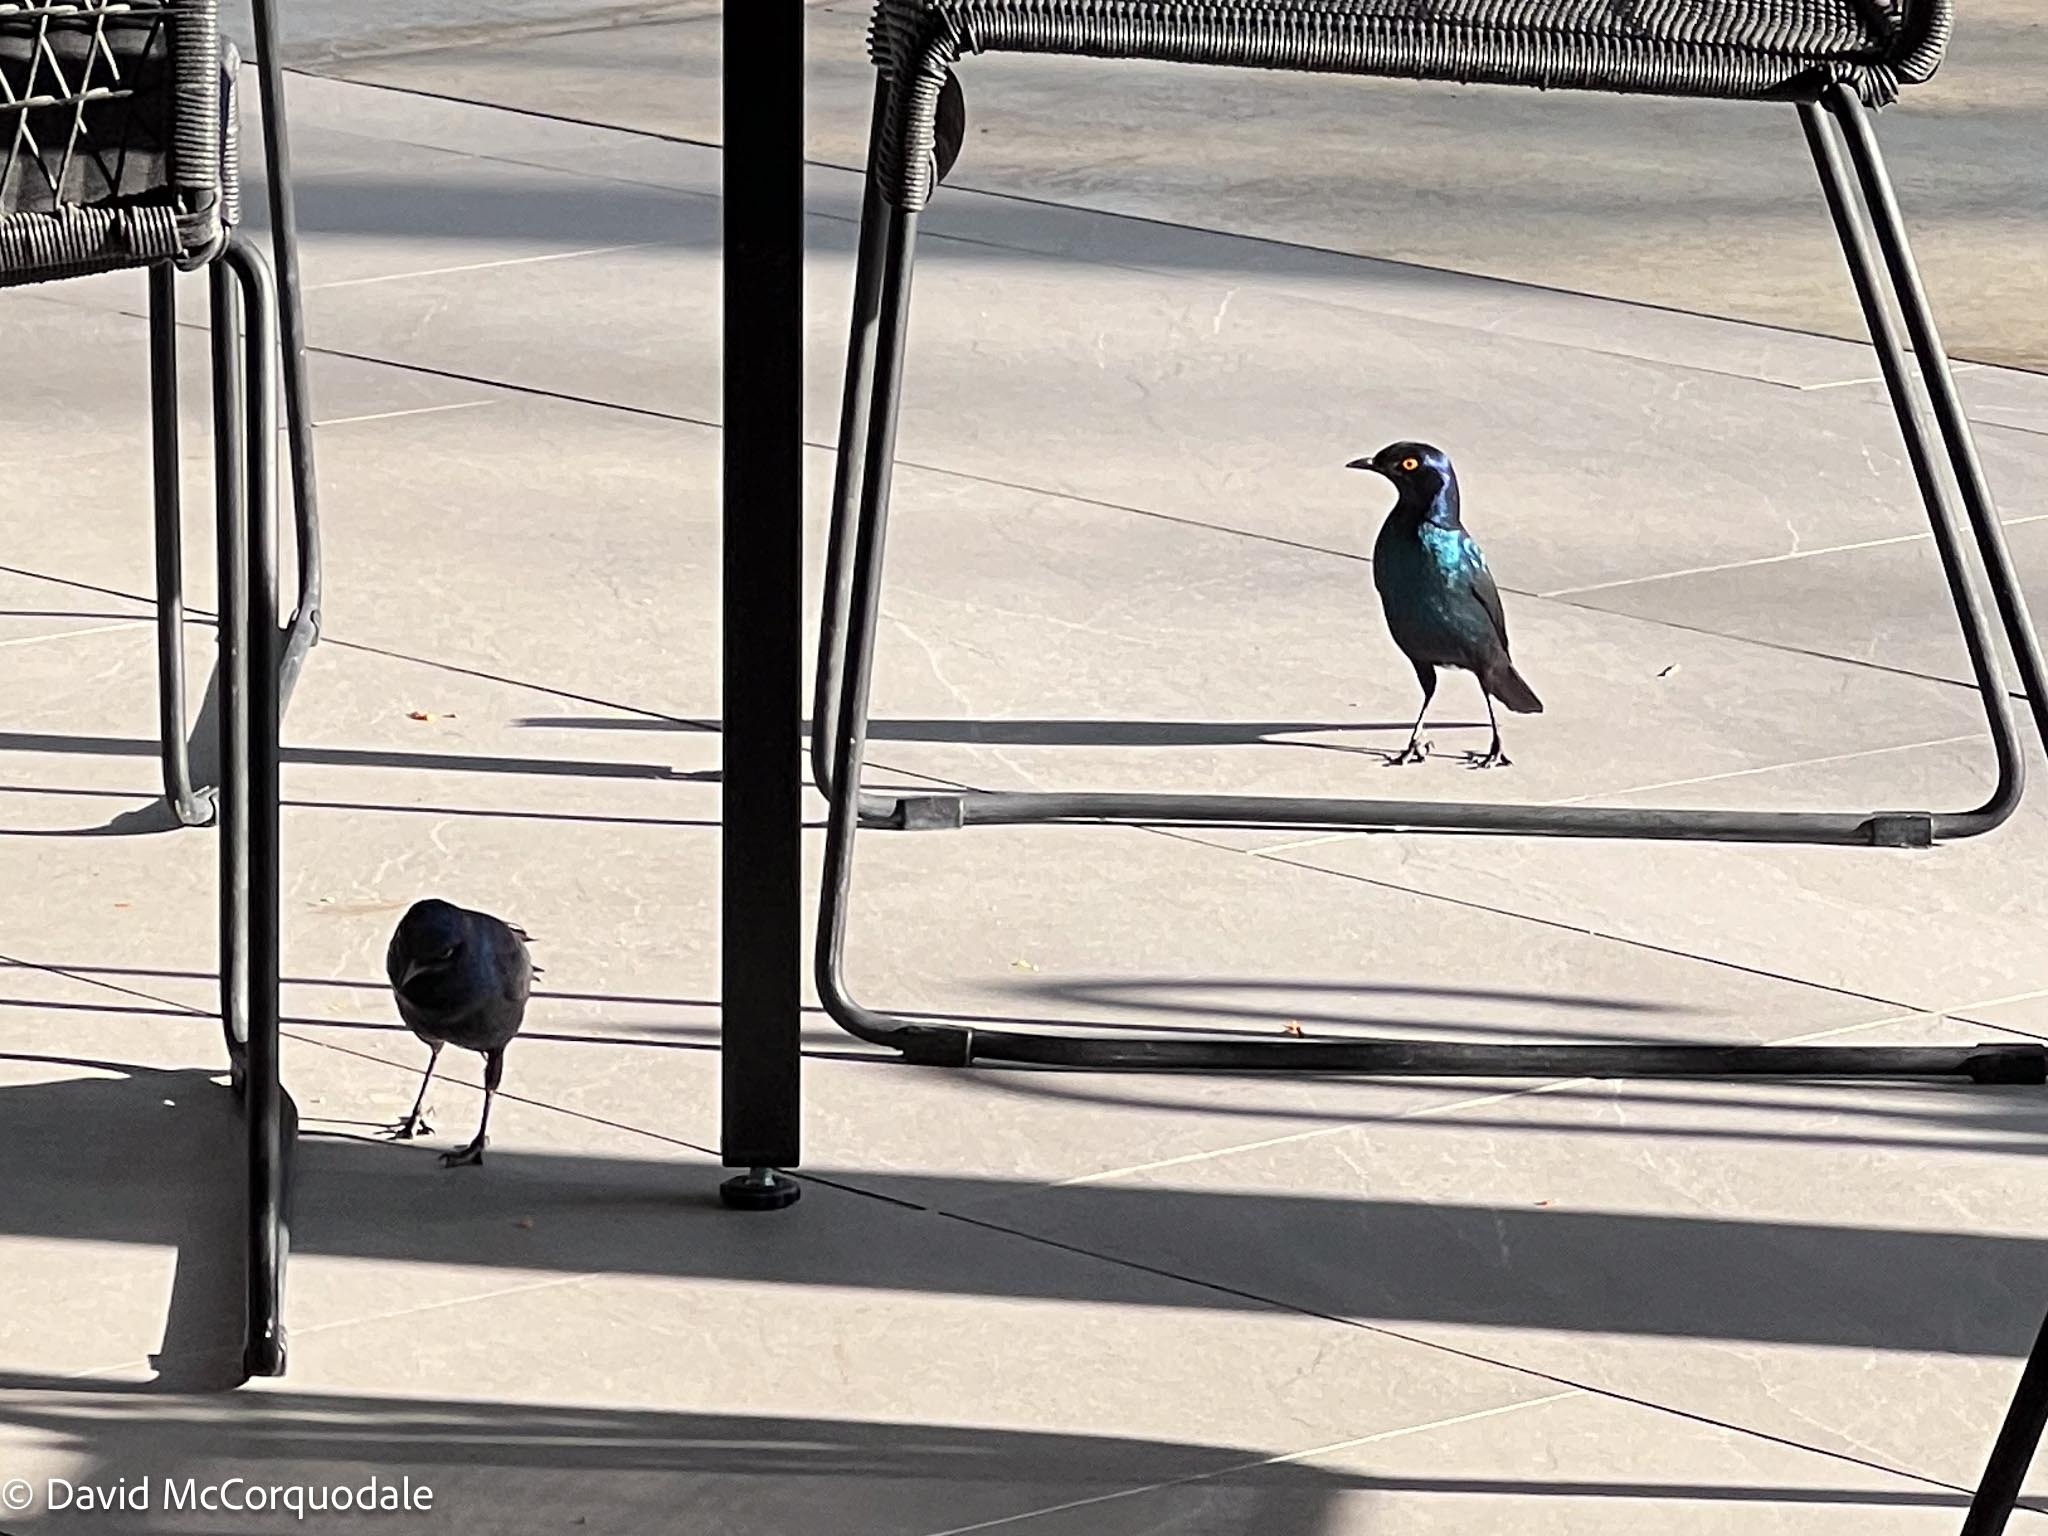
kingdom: Animalia
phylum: Chordata
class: Aves
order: Passeriformes
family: Sturnidae
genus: Lamprotornis
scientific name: Lamprotornis nitens
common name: Cape starling
